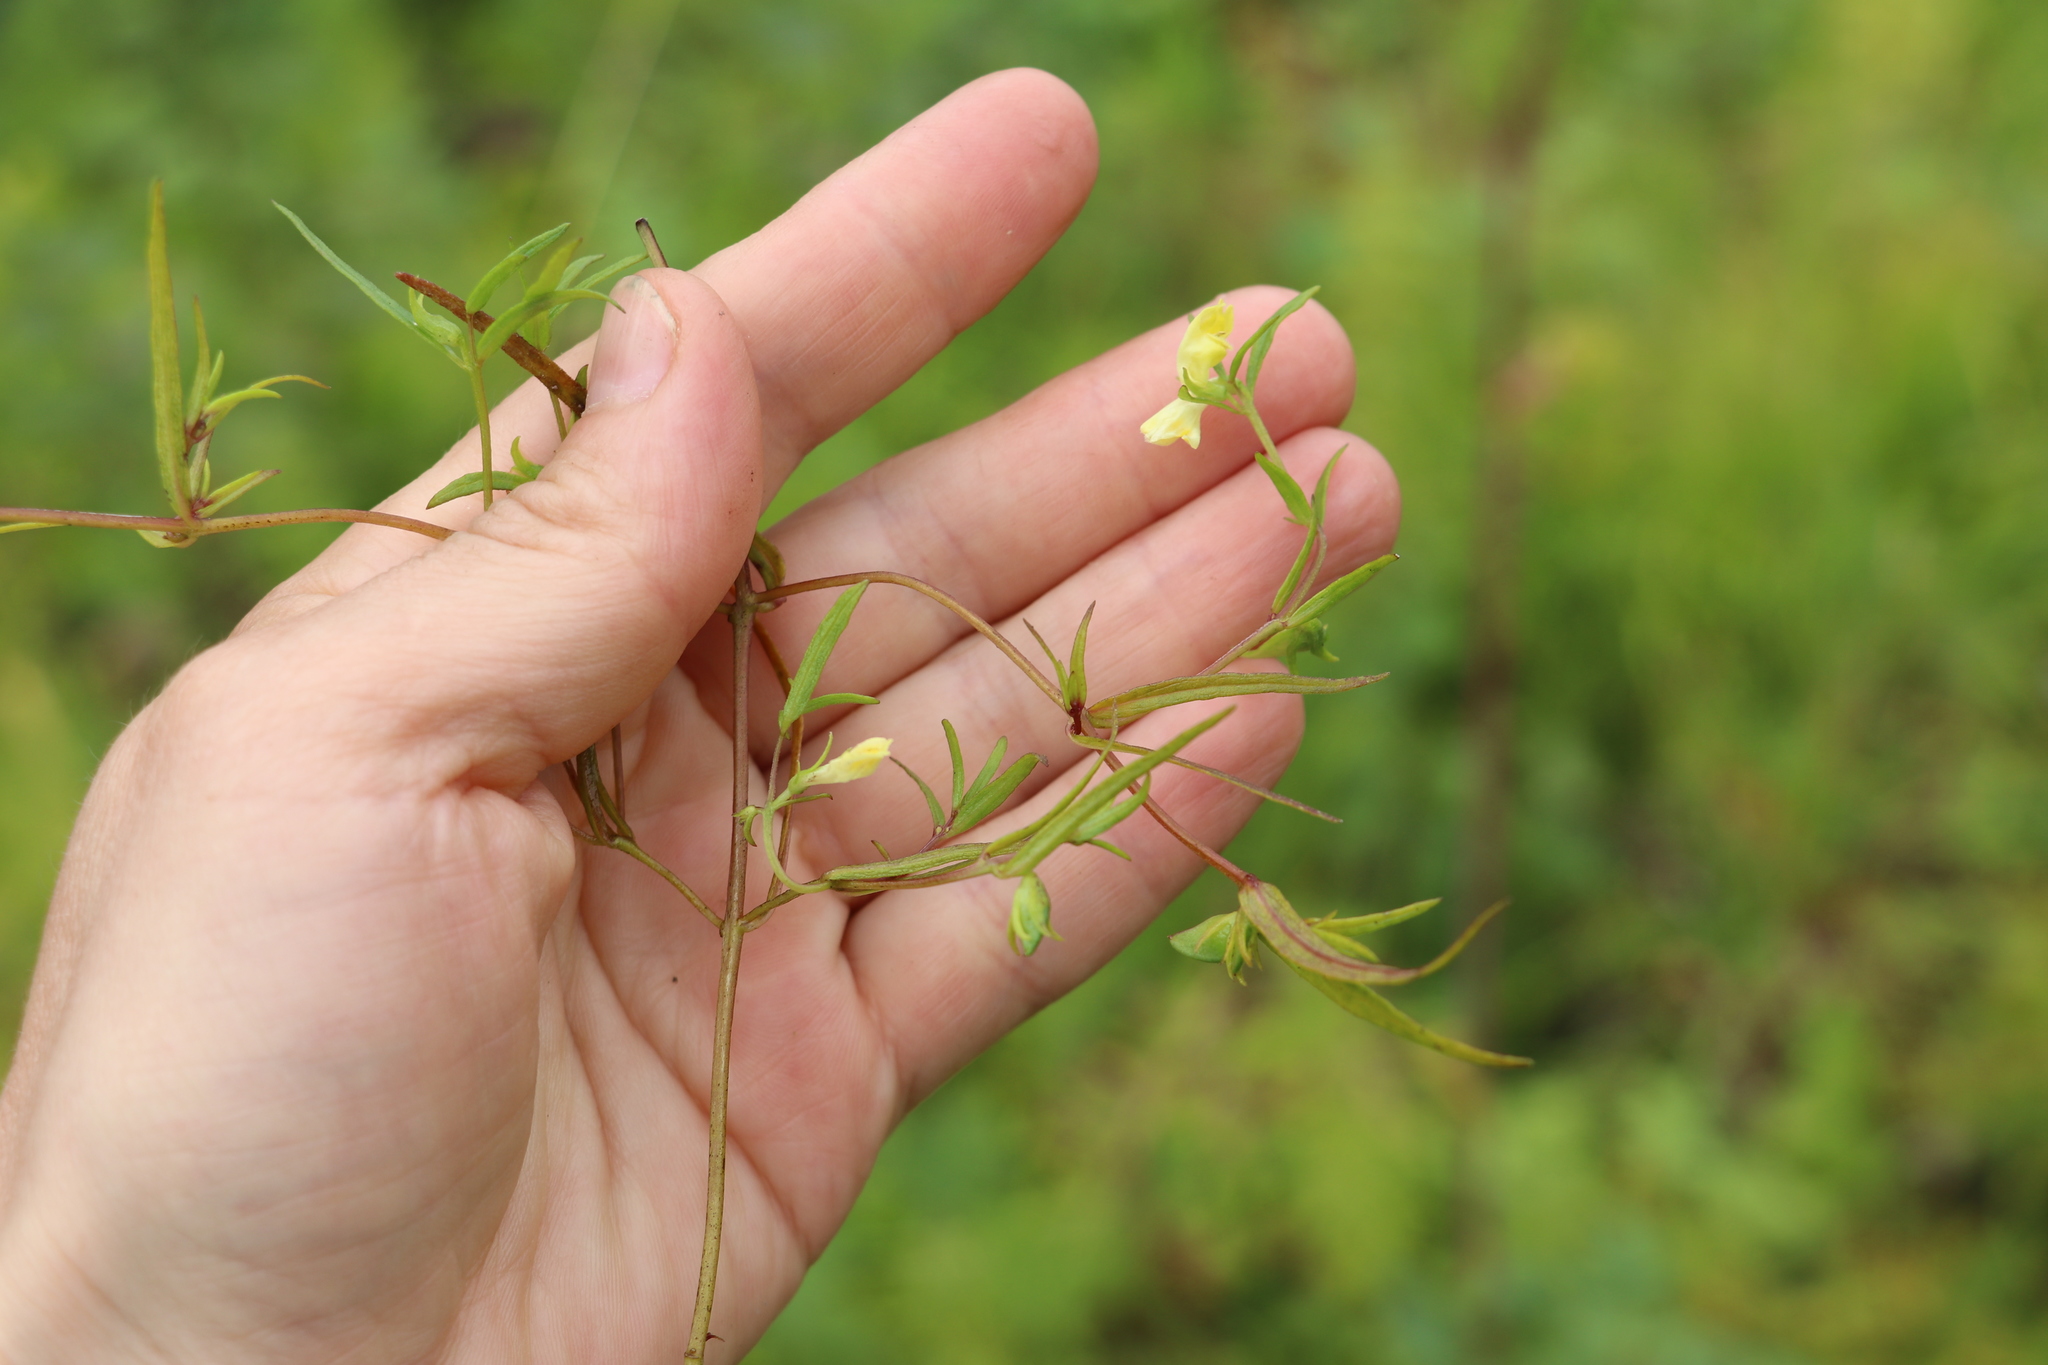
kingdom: Plantae
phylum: Tracheophyta
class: Magnoliopsida
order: Lamiales
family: Orobanchaceae
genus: Melampyrum
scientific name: Melampyrum pratense
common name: Common cow-wheat
